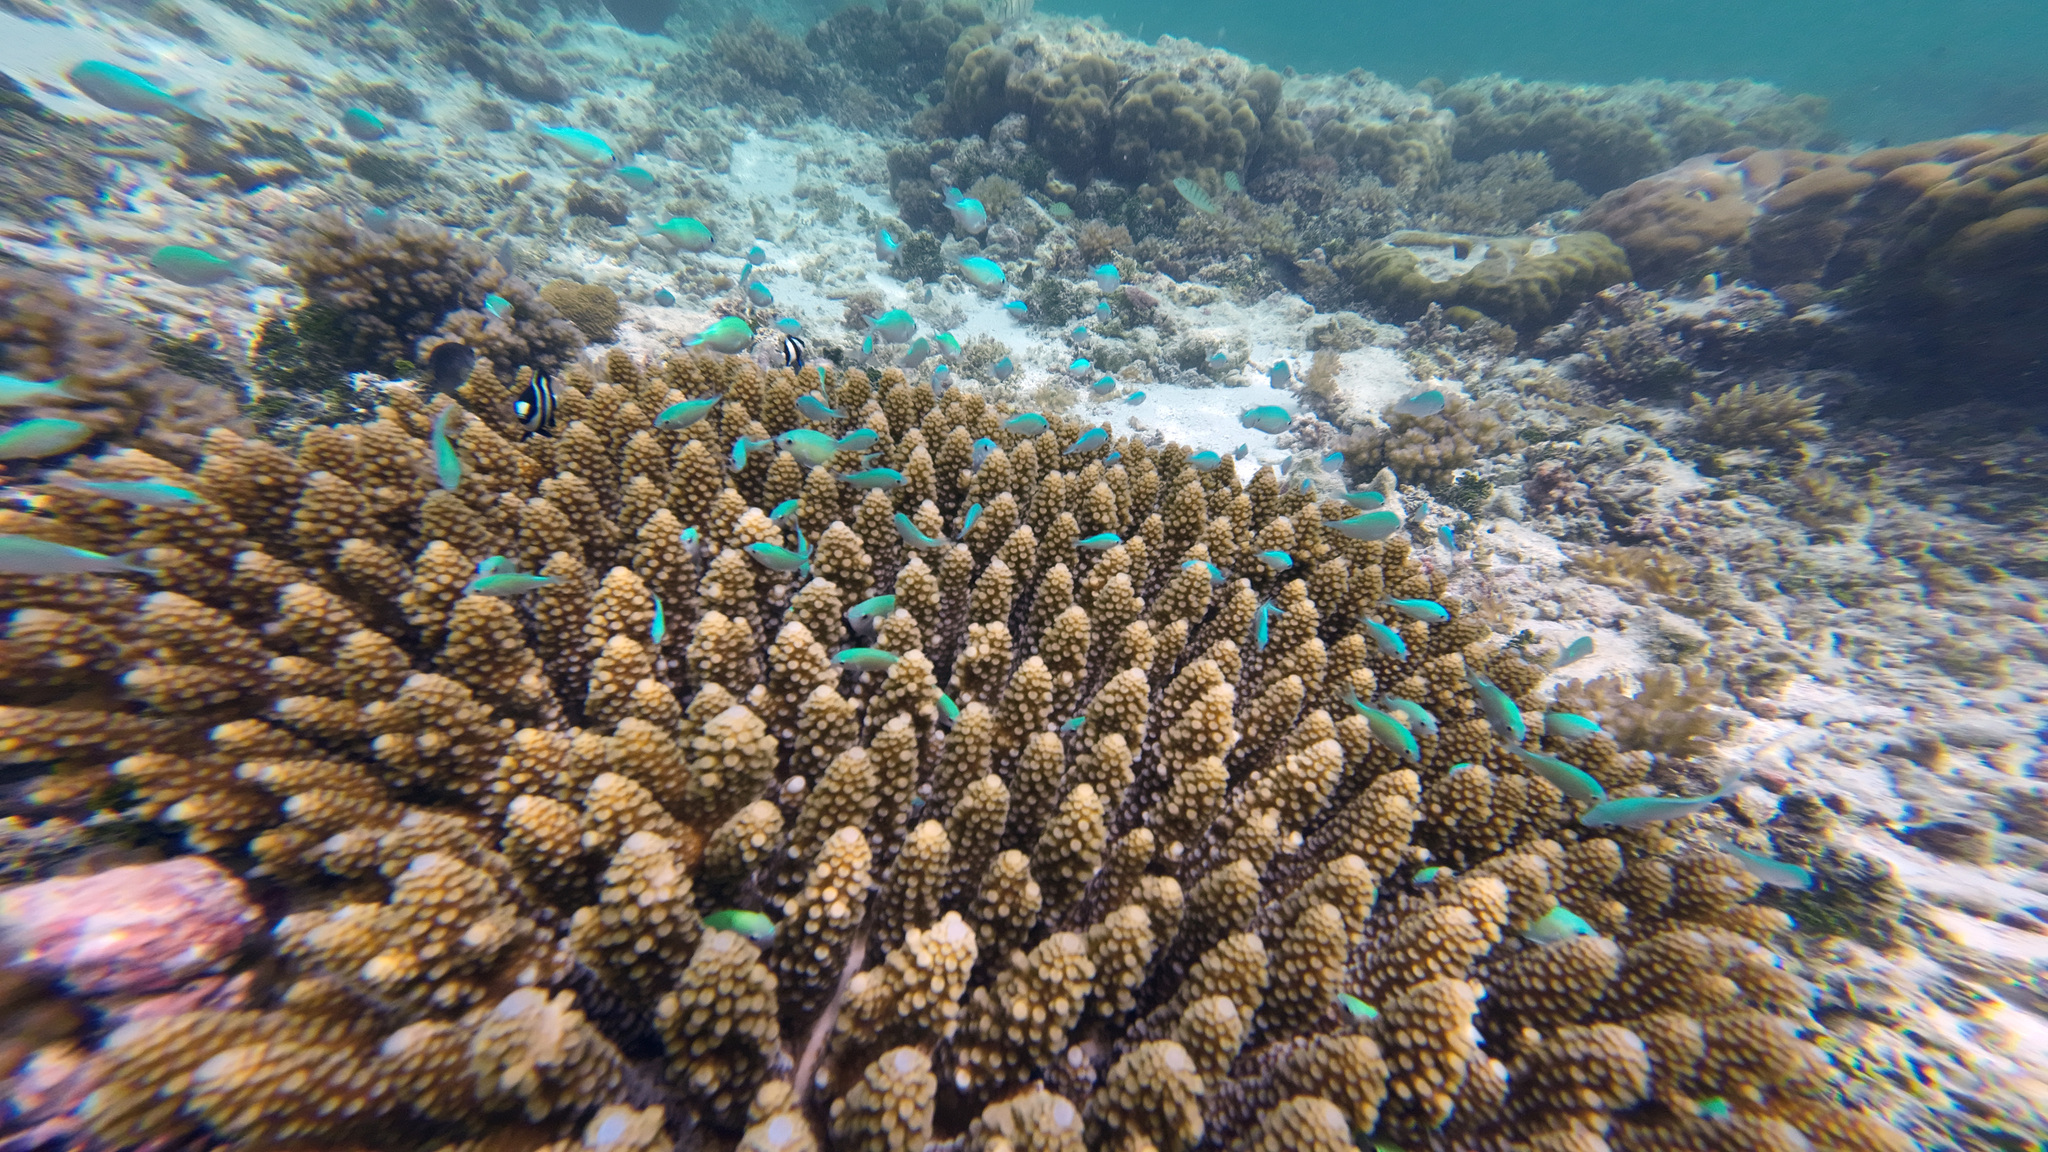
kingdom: Animalia
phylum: Chordata
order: Perciformes
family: Pomacentridae
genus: Chromis
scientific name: Chromis viridis
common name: Blue-green chromis
